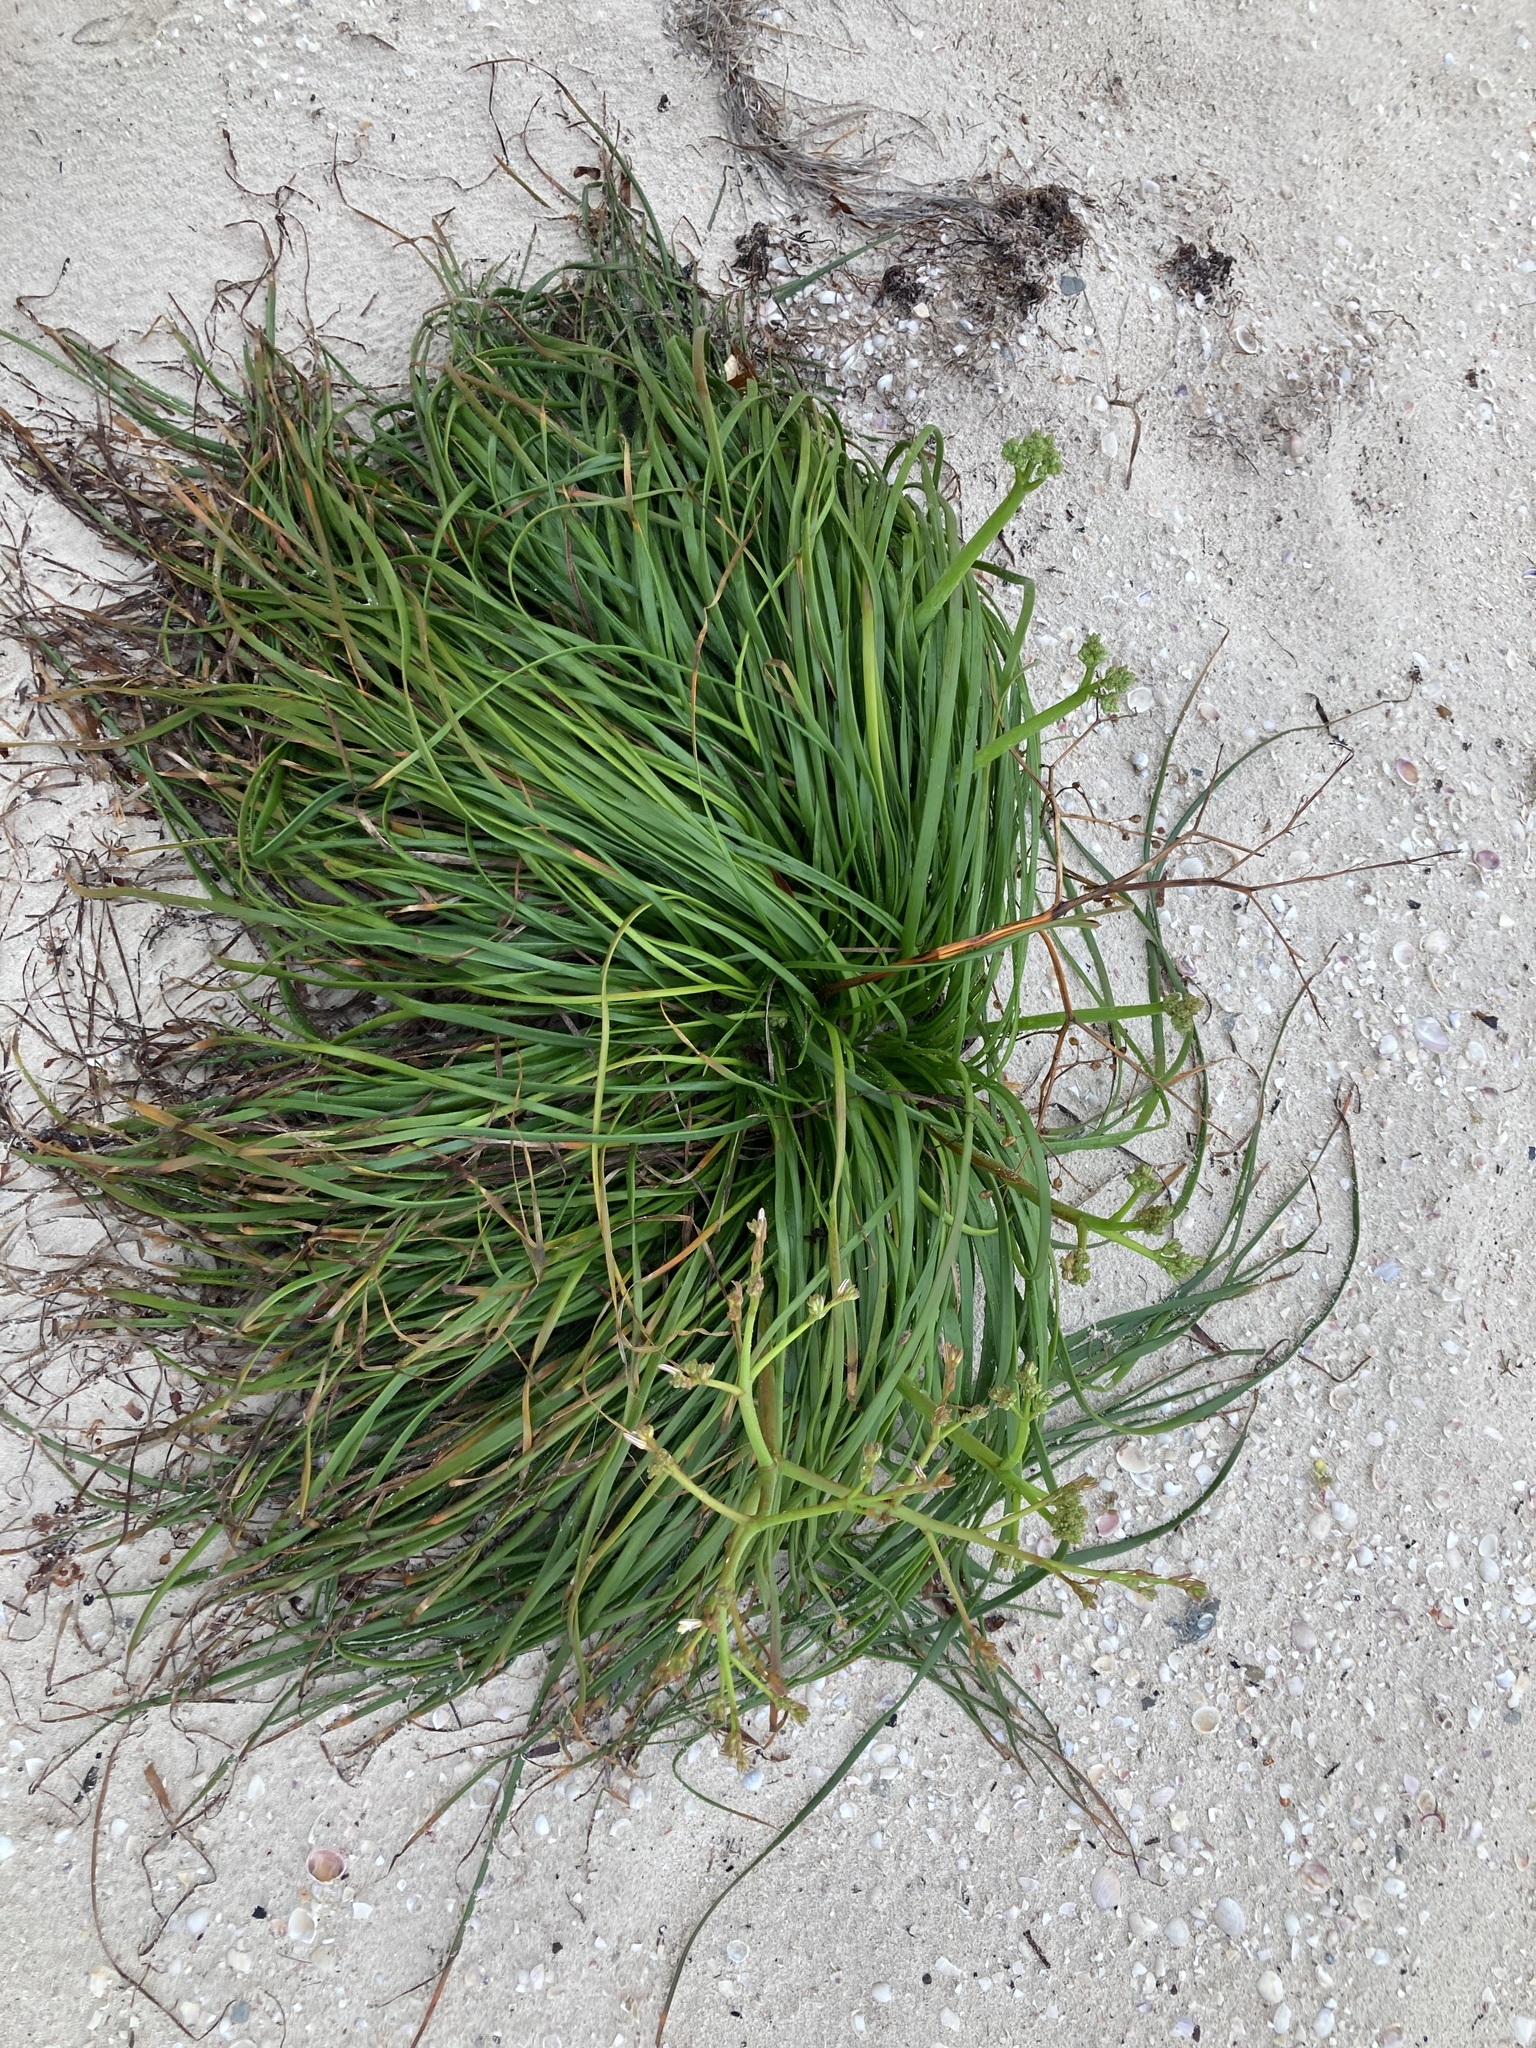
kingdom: Plantae
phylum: Tracheophyta
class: Liliopsida
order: Asparagales
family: Asphodelaceae
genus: Trachyandra
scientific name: Trachyandra divaricata
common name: Dune onionweed
